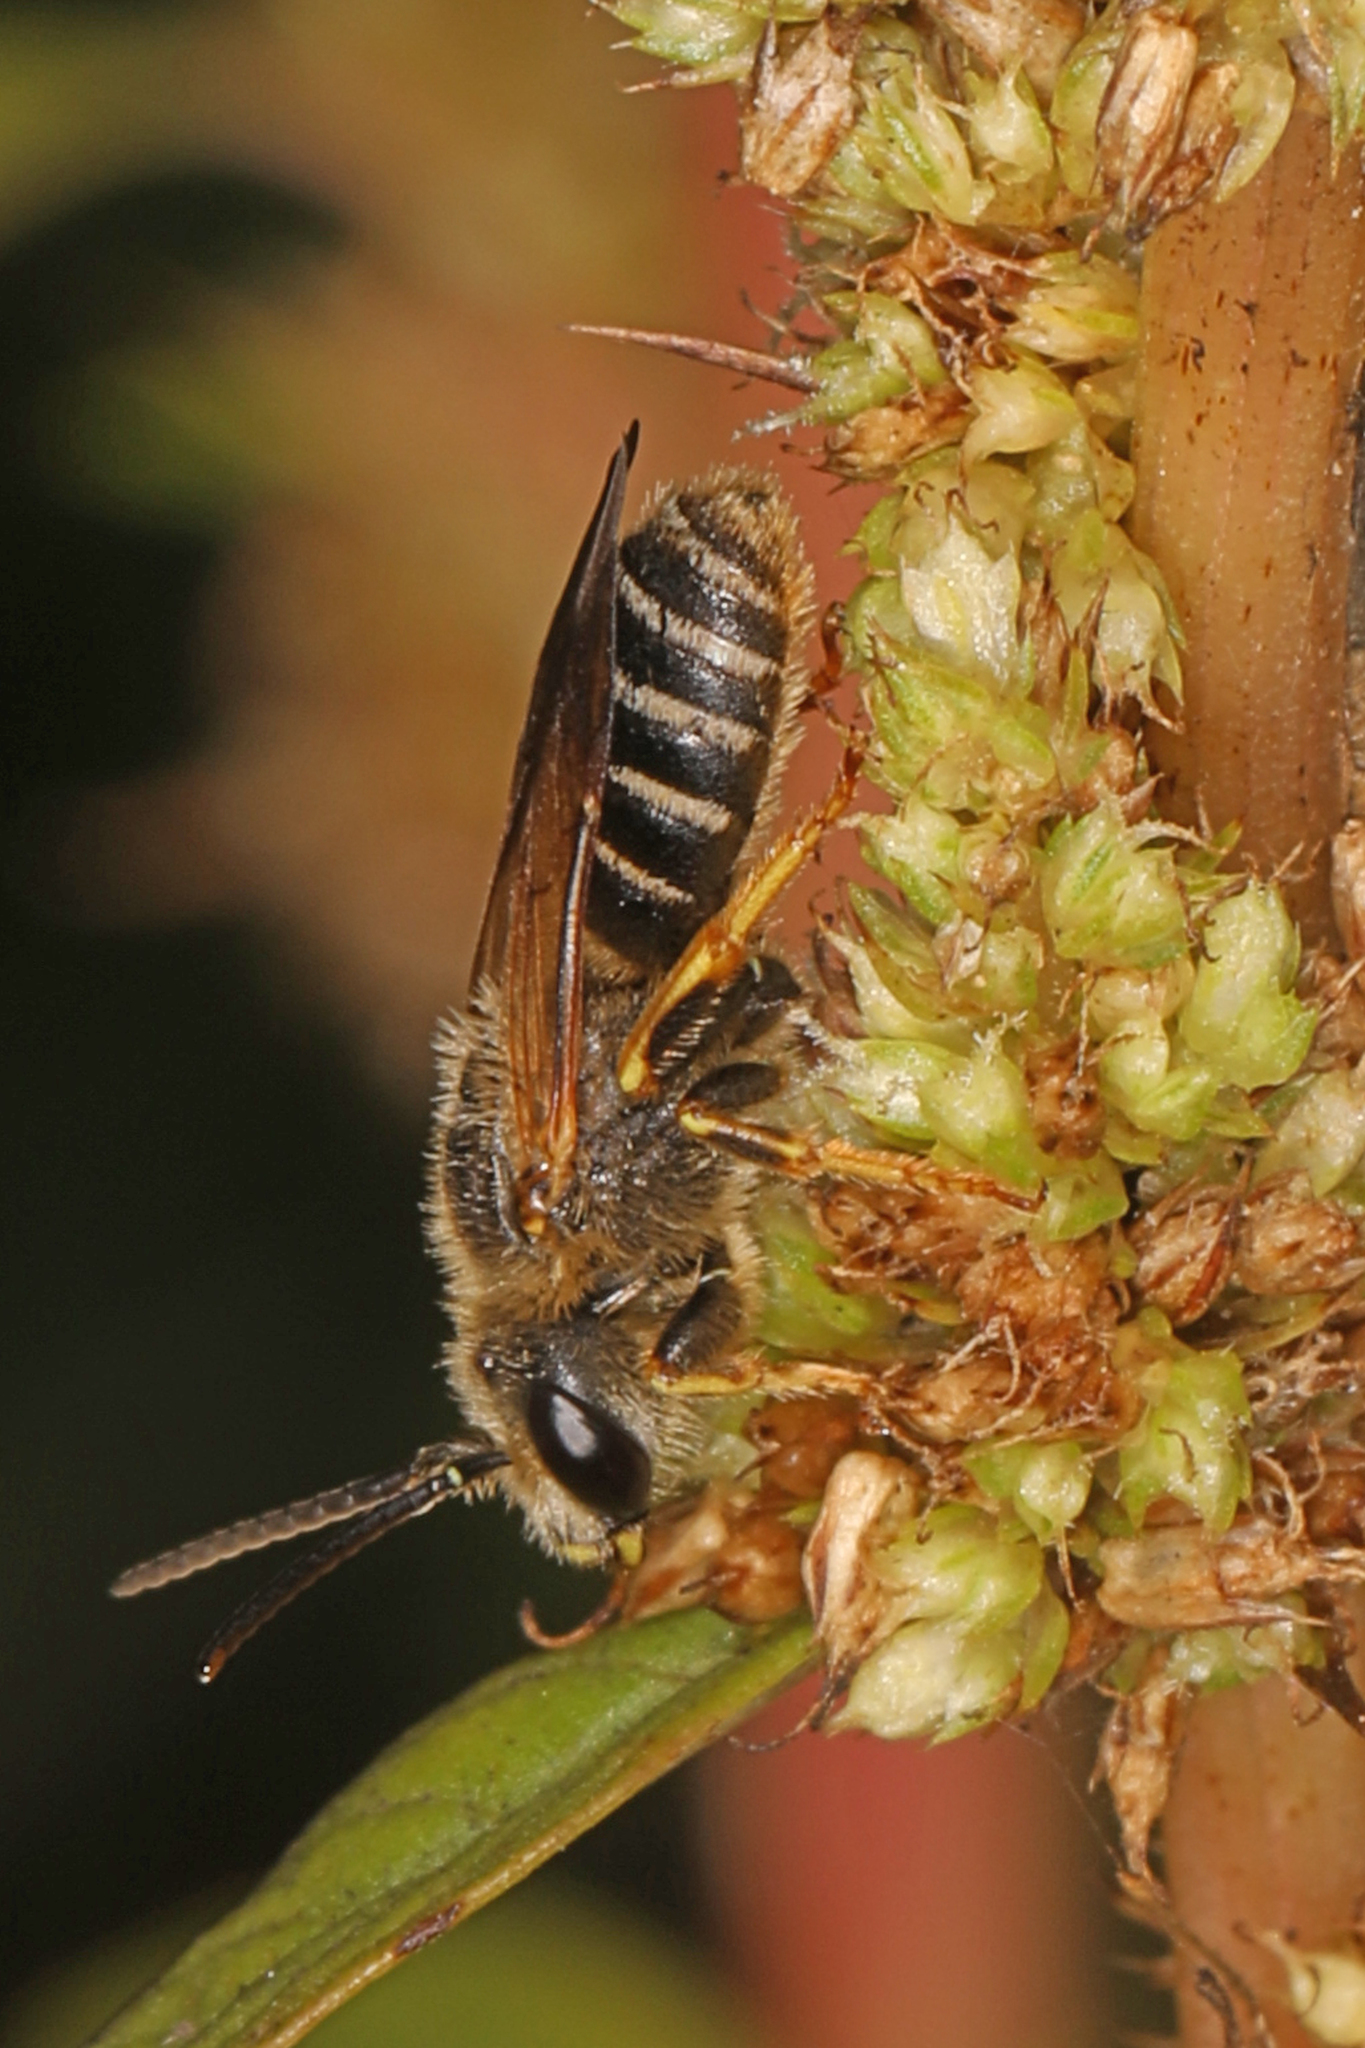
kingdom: Animalia
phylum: Arthropoda
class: Insecta
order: Hymenoptera
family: Halictidae
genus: Halictus
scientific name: Halictus poeyi
